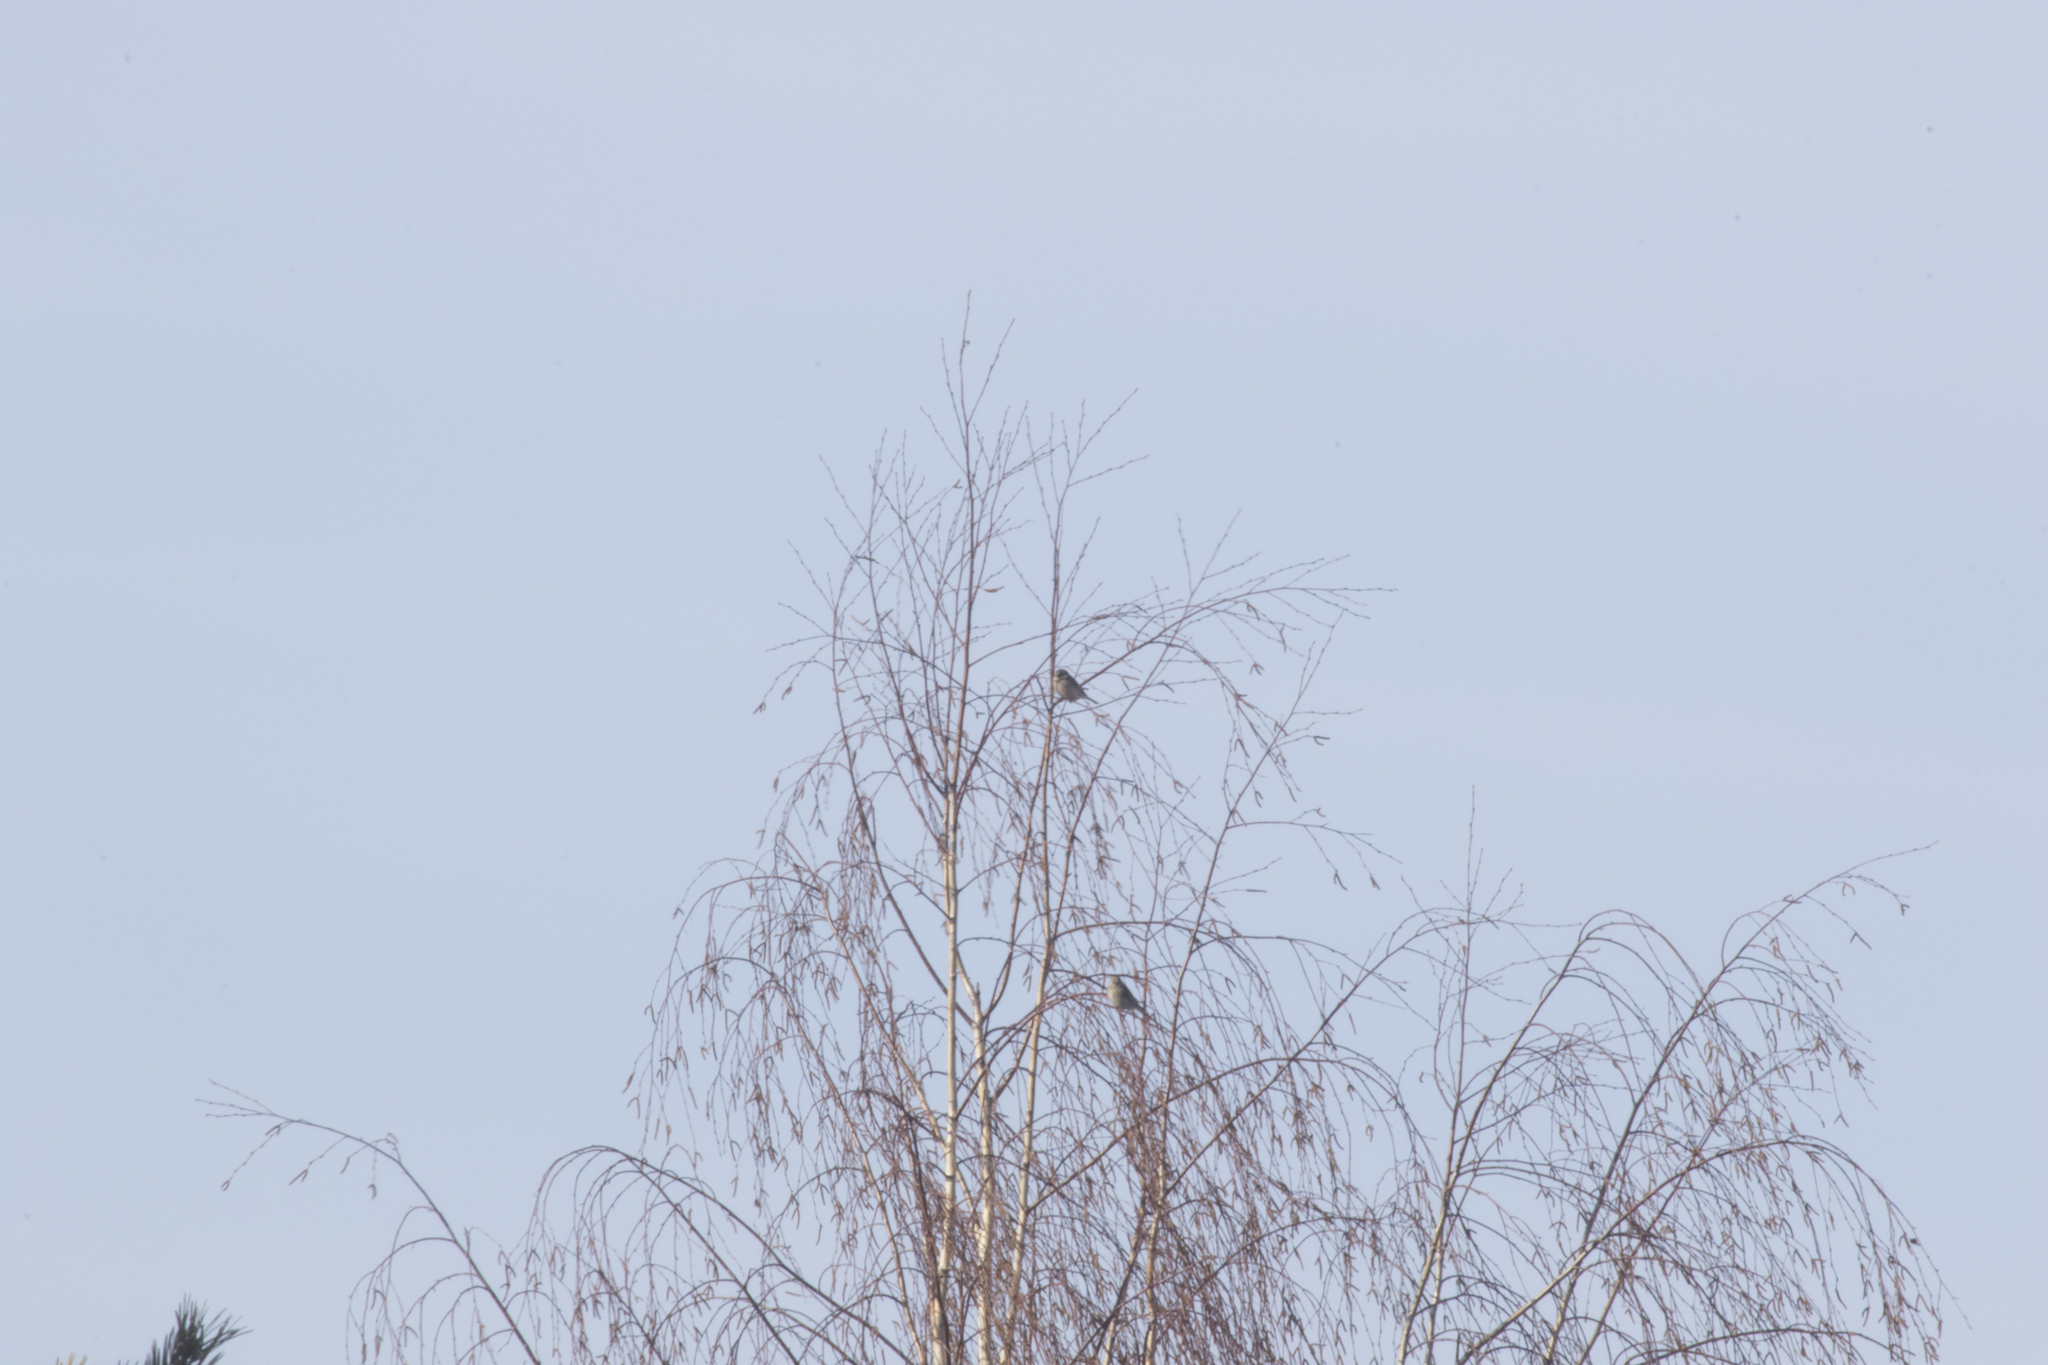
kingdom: Animalia
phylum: Chordata
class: Aves
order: Passeriformes
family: Fringillidae
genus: Linaria
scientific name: Linaria cannabina
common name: Common linnet
